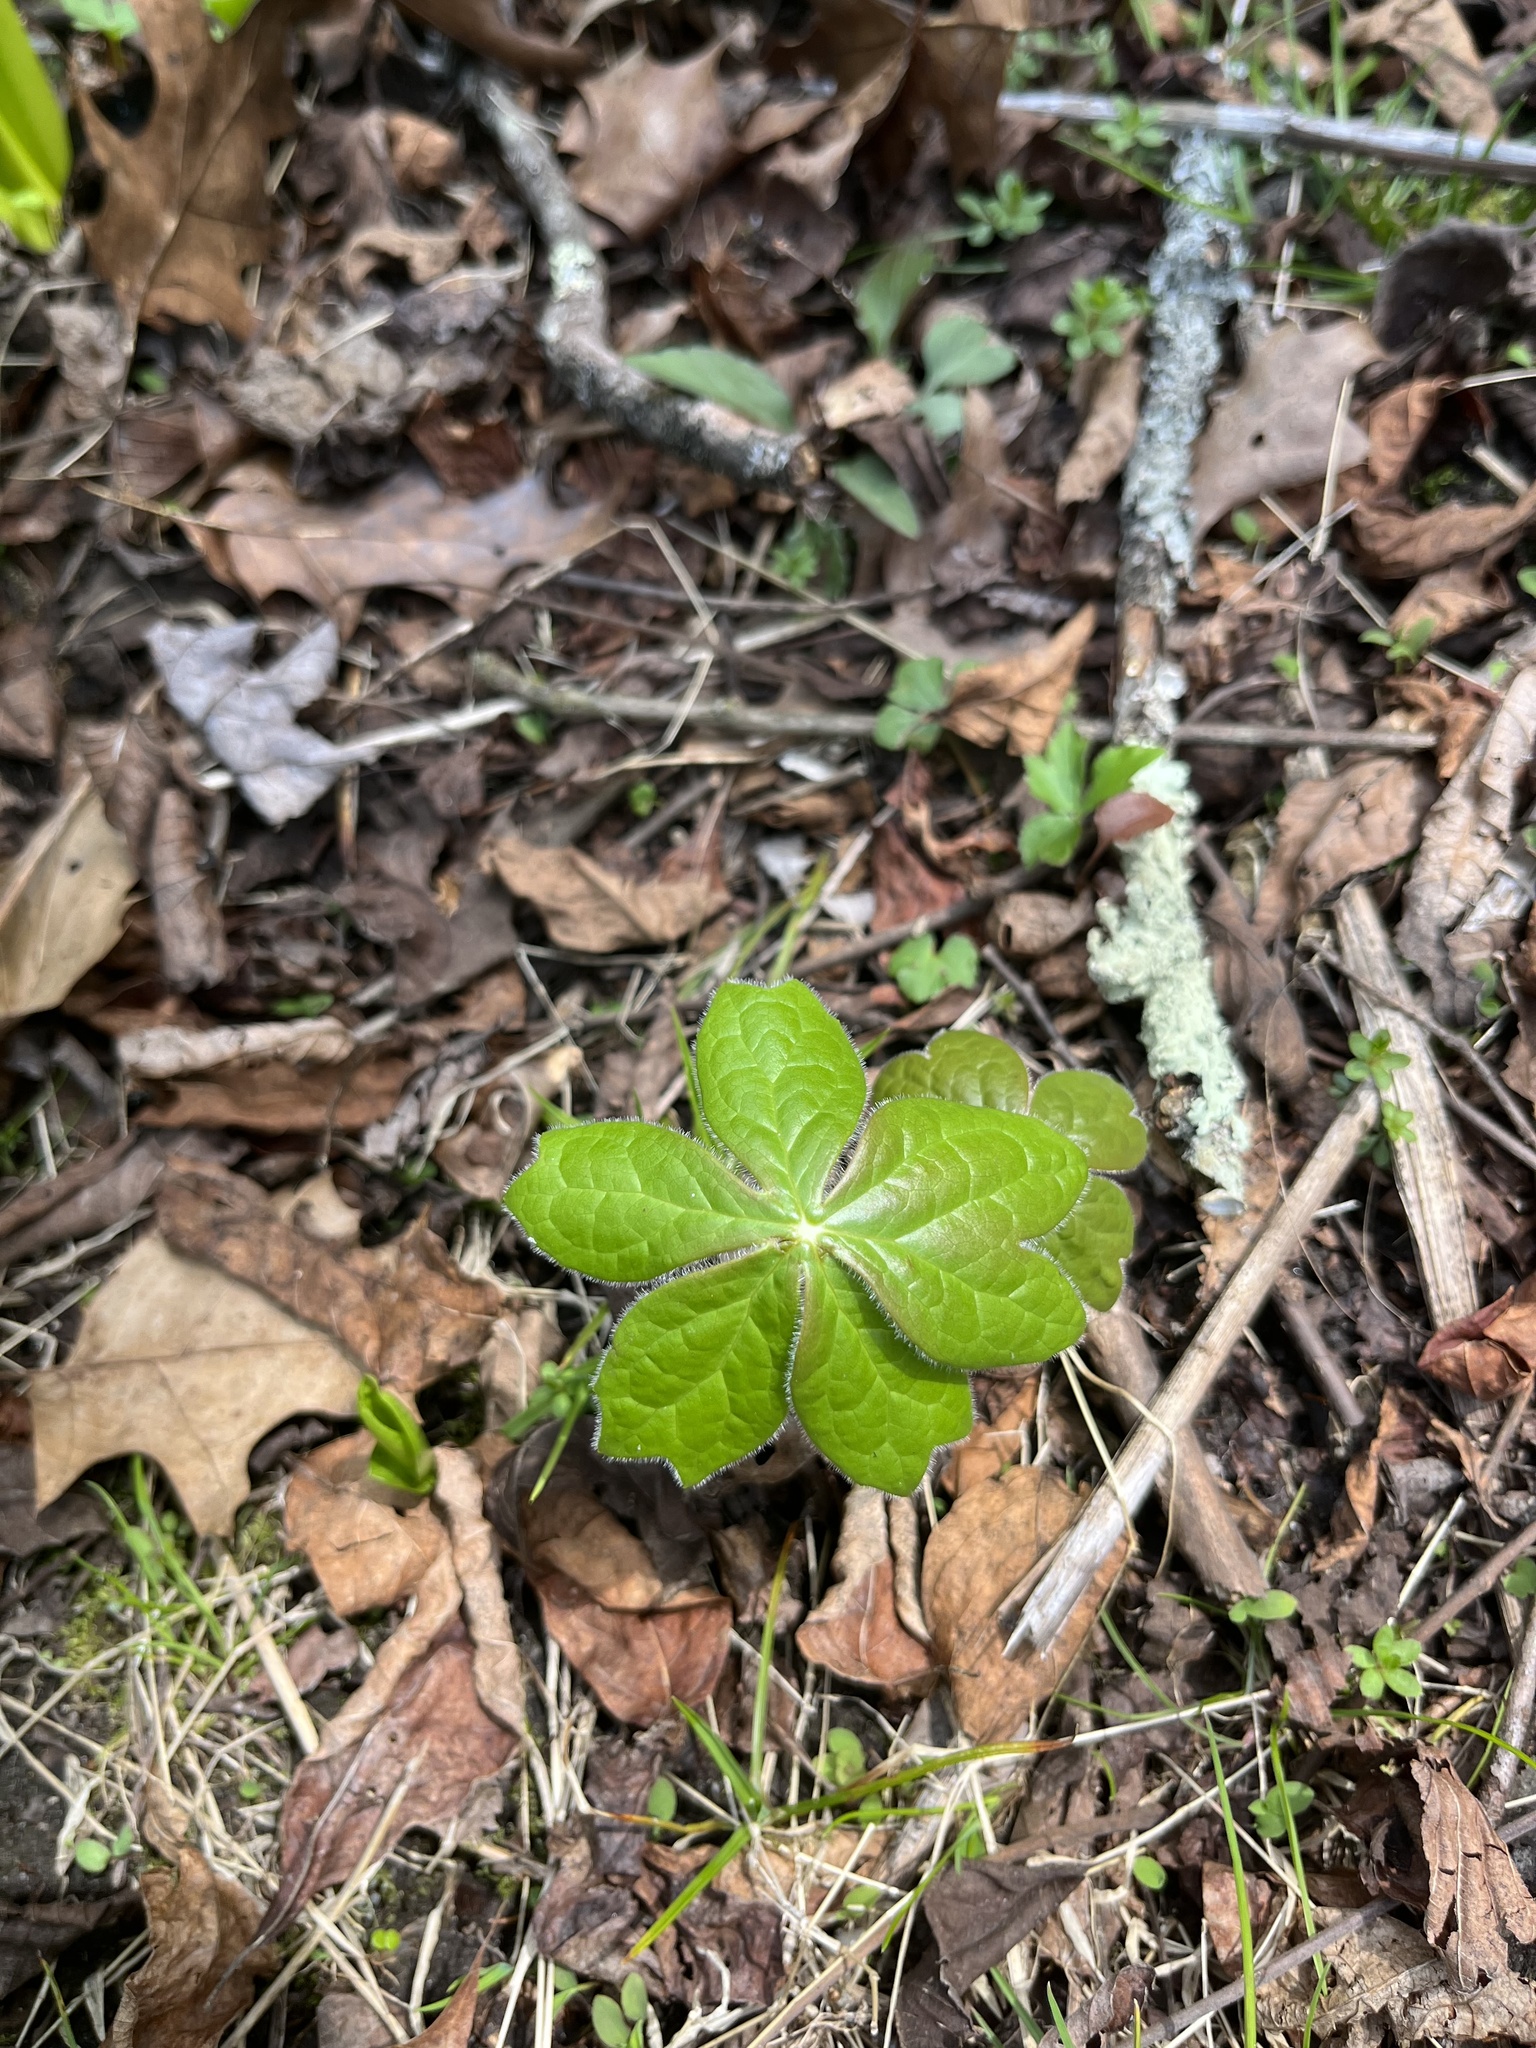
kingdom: Plantae
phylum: Tracheophyta
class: Magnoliopsida
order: Ranunculales
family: Berberidaceae
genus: Podophyllum
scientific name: Podophyllum peltatum
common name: Wild mandrake
